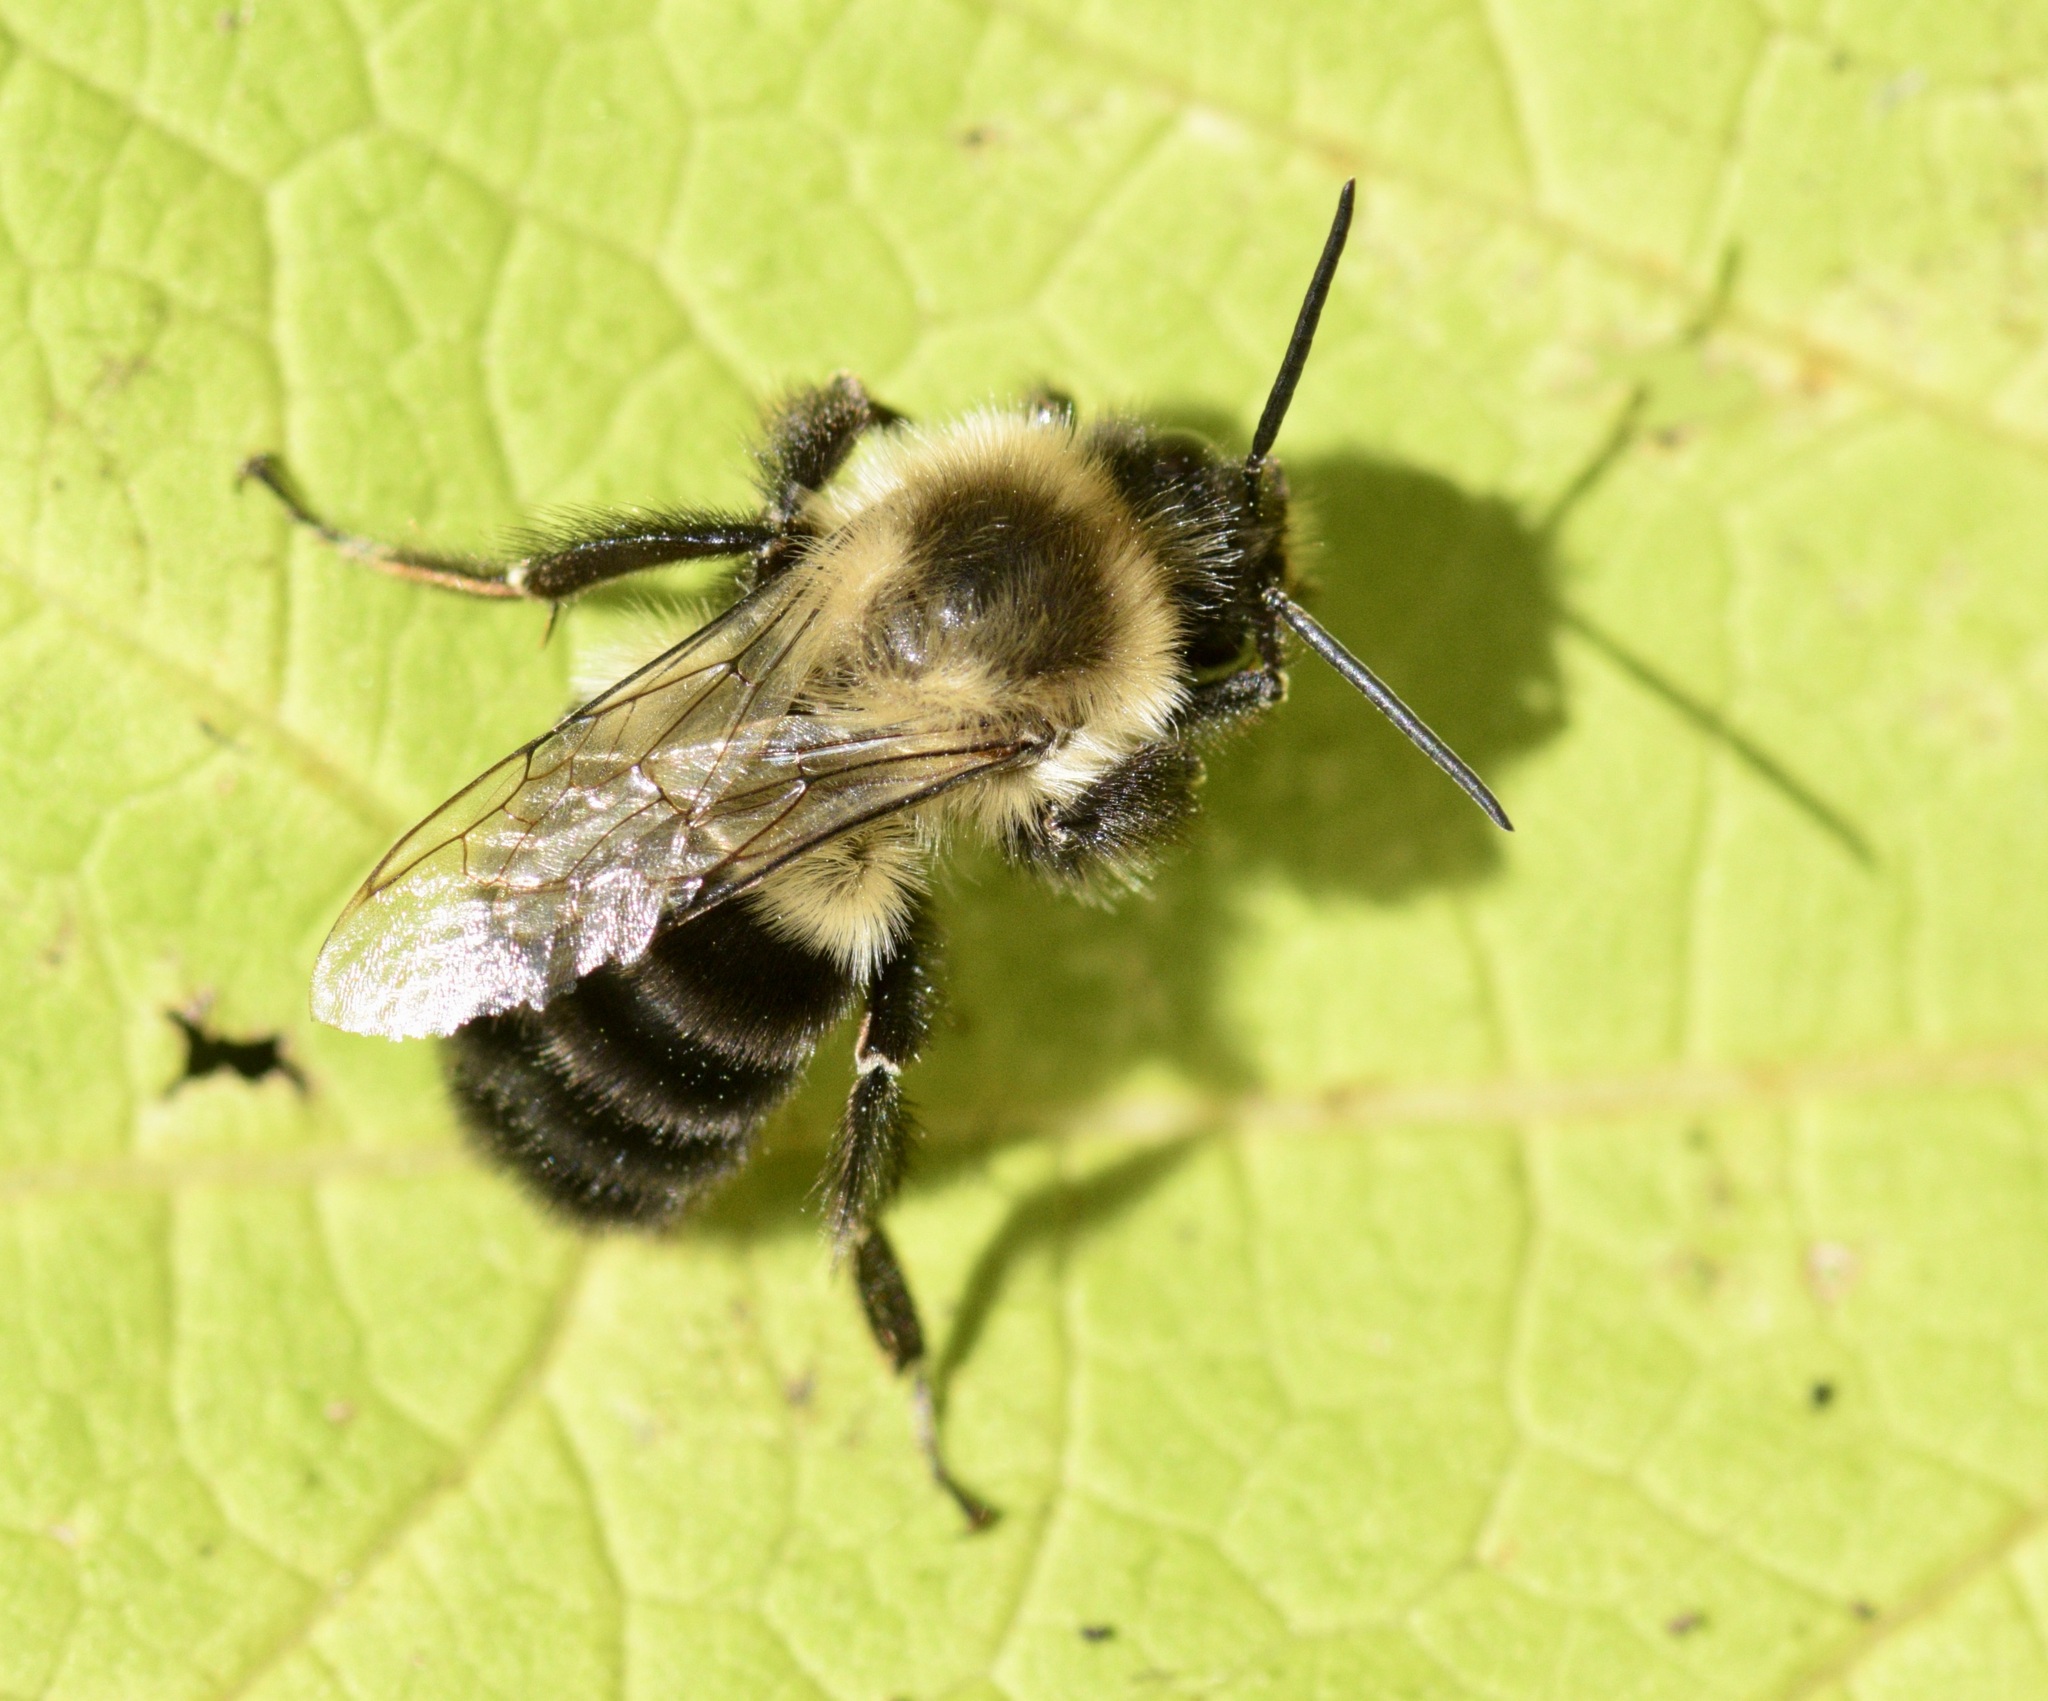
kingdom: Animalia
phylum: Arthropoda
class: Insecta
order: Hymenoptera
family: Apidae
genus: Bombus
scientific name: Bombus impatiens
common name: Common eastern bumble bee
